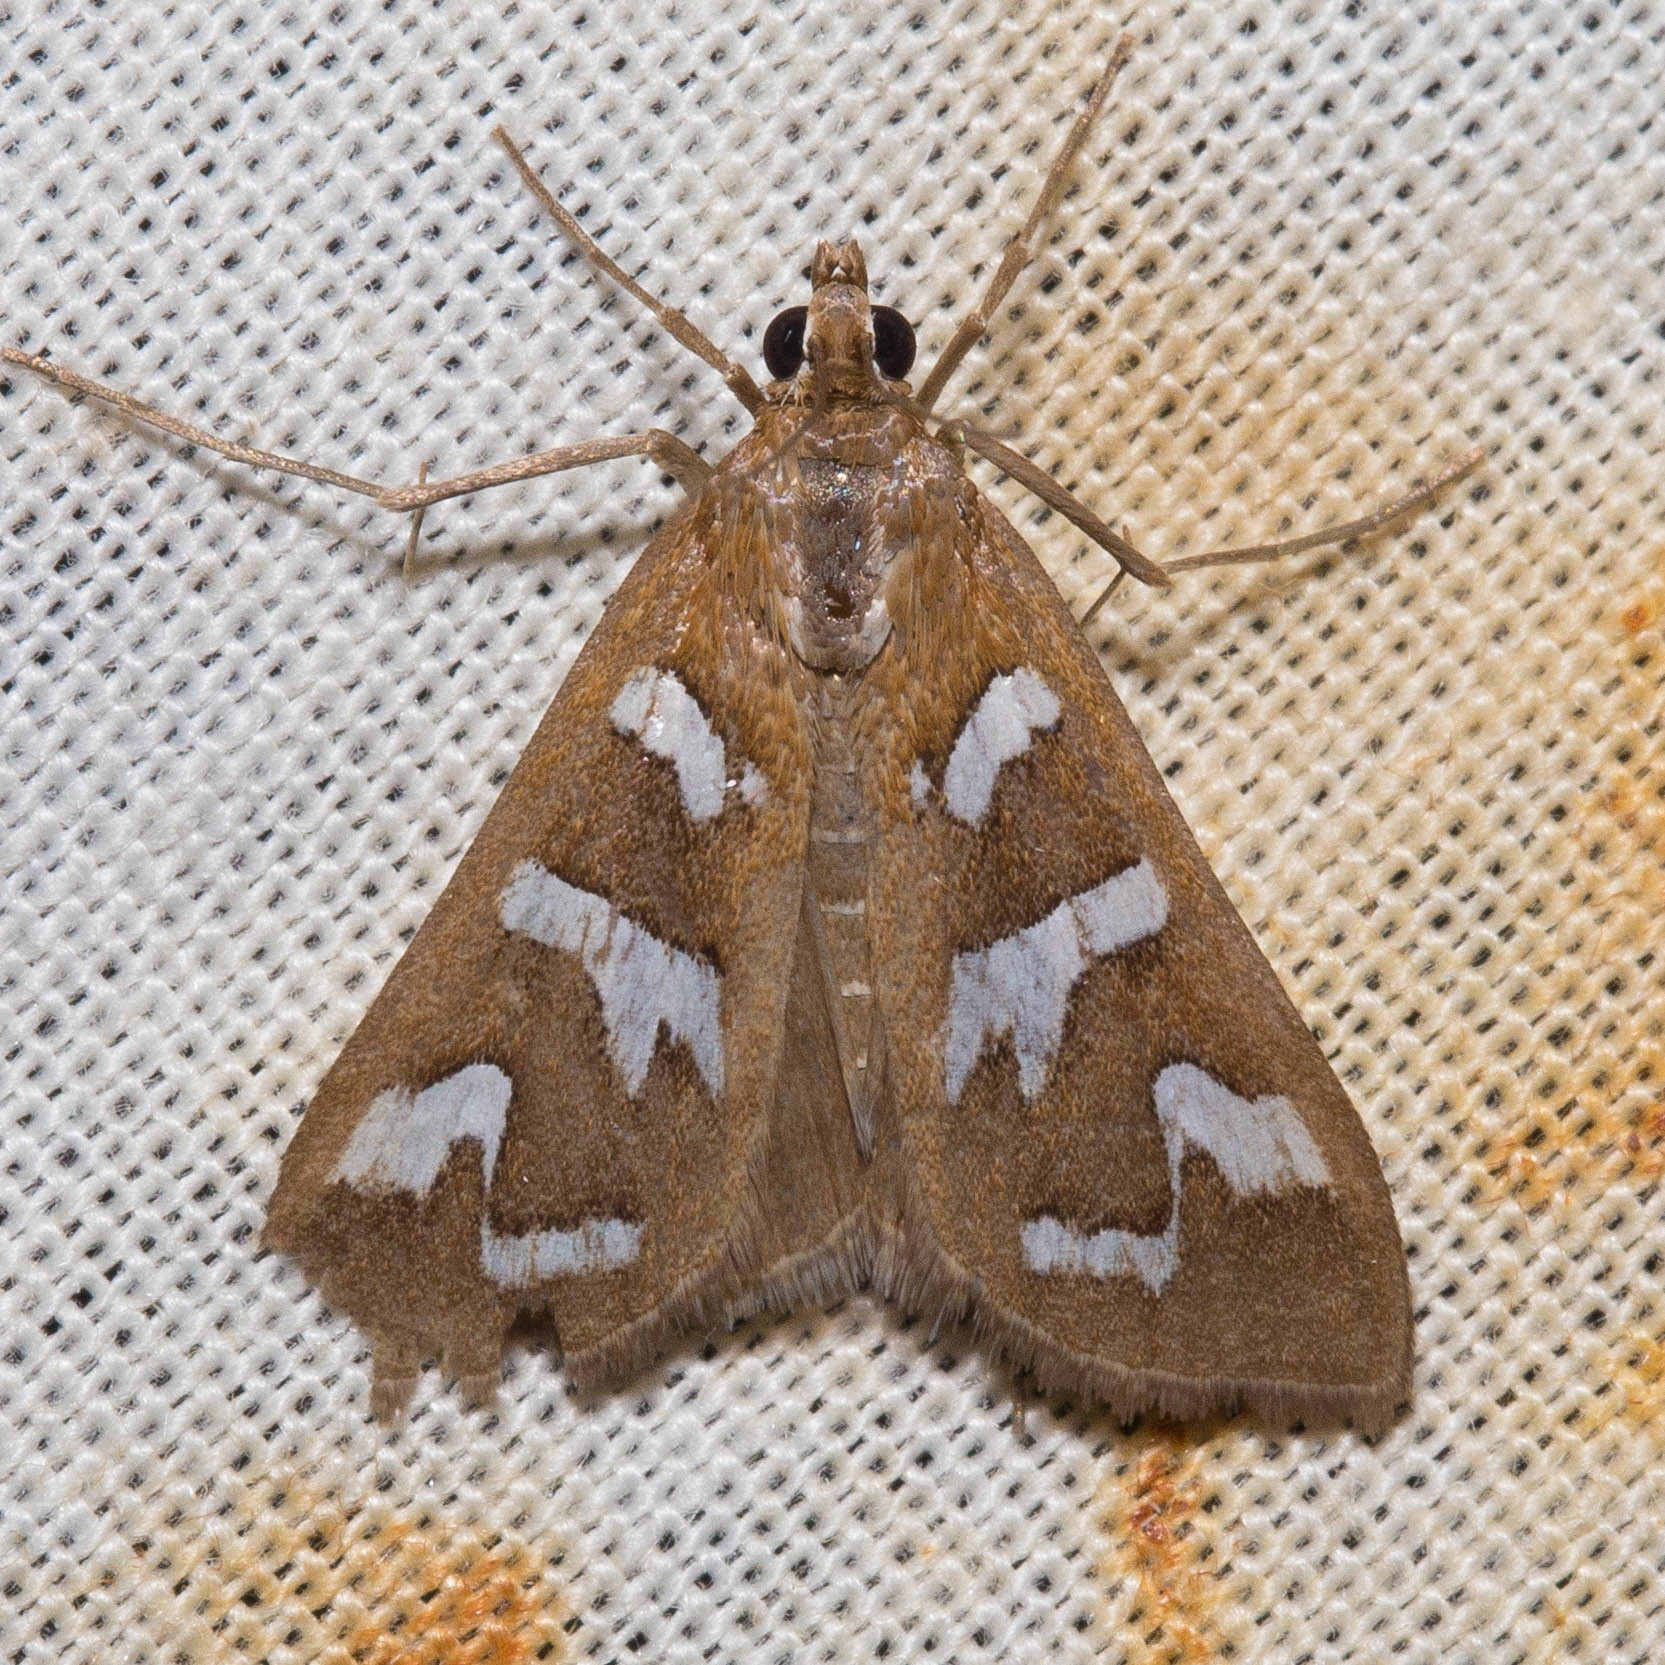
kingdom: Animalia
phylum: Arthropoda
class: Insecta
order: Lepidoptera
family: Crambidae
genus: Diastictis
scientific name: Diastictis fracturalis
